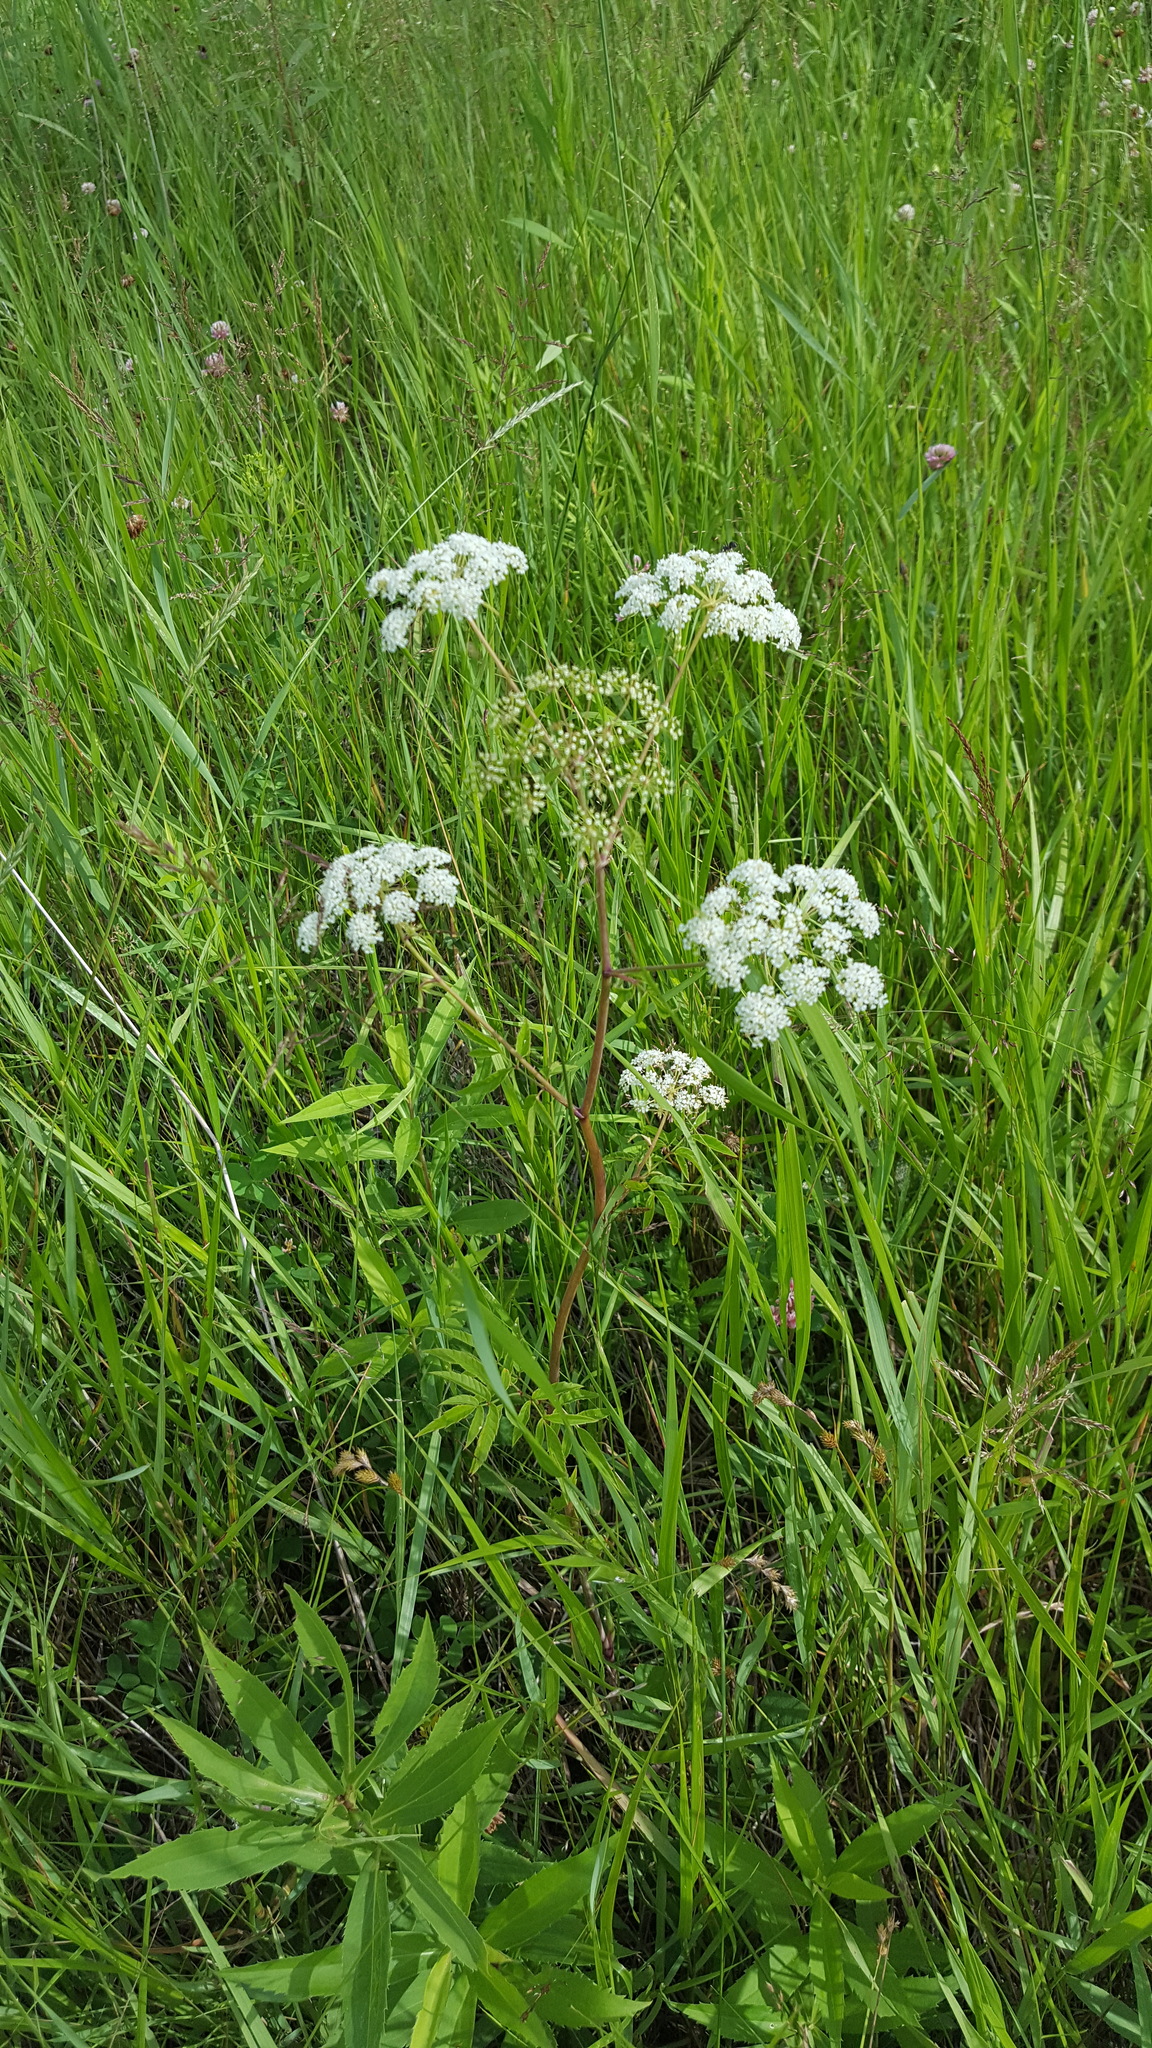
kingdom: Plantae
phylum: Tracheophyta
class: Magnoliopsida
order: Apiales
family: Apiaceae
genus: Cicuta
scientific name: Cicuta maculata
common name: Spotted cowbane
